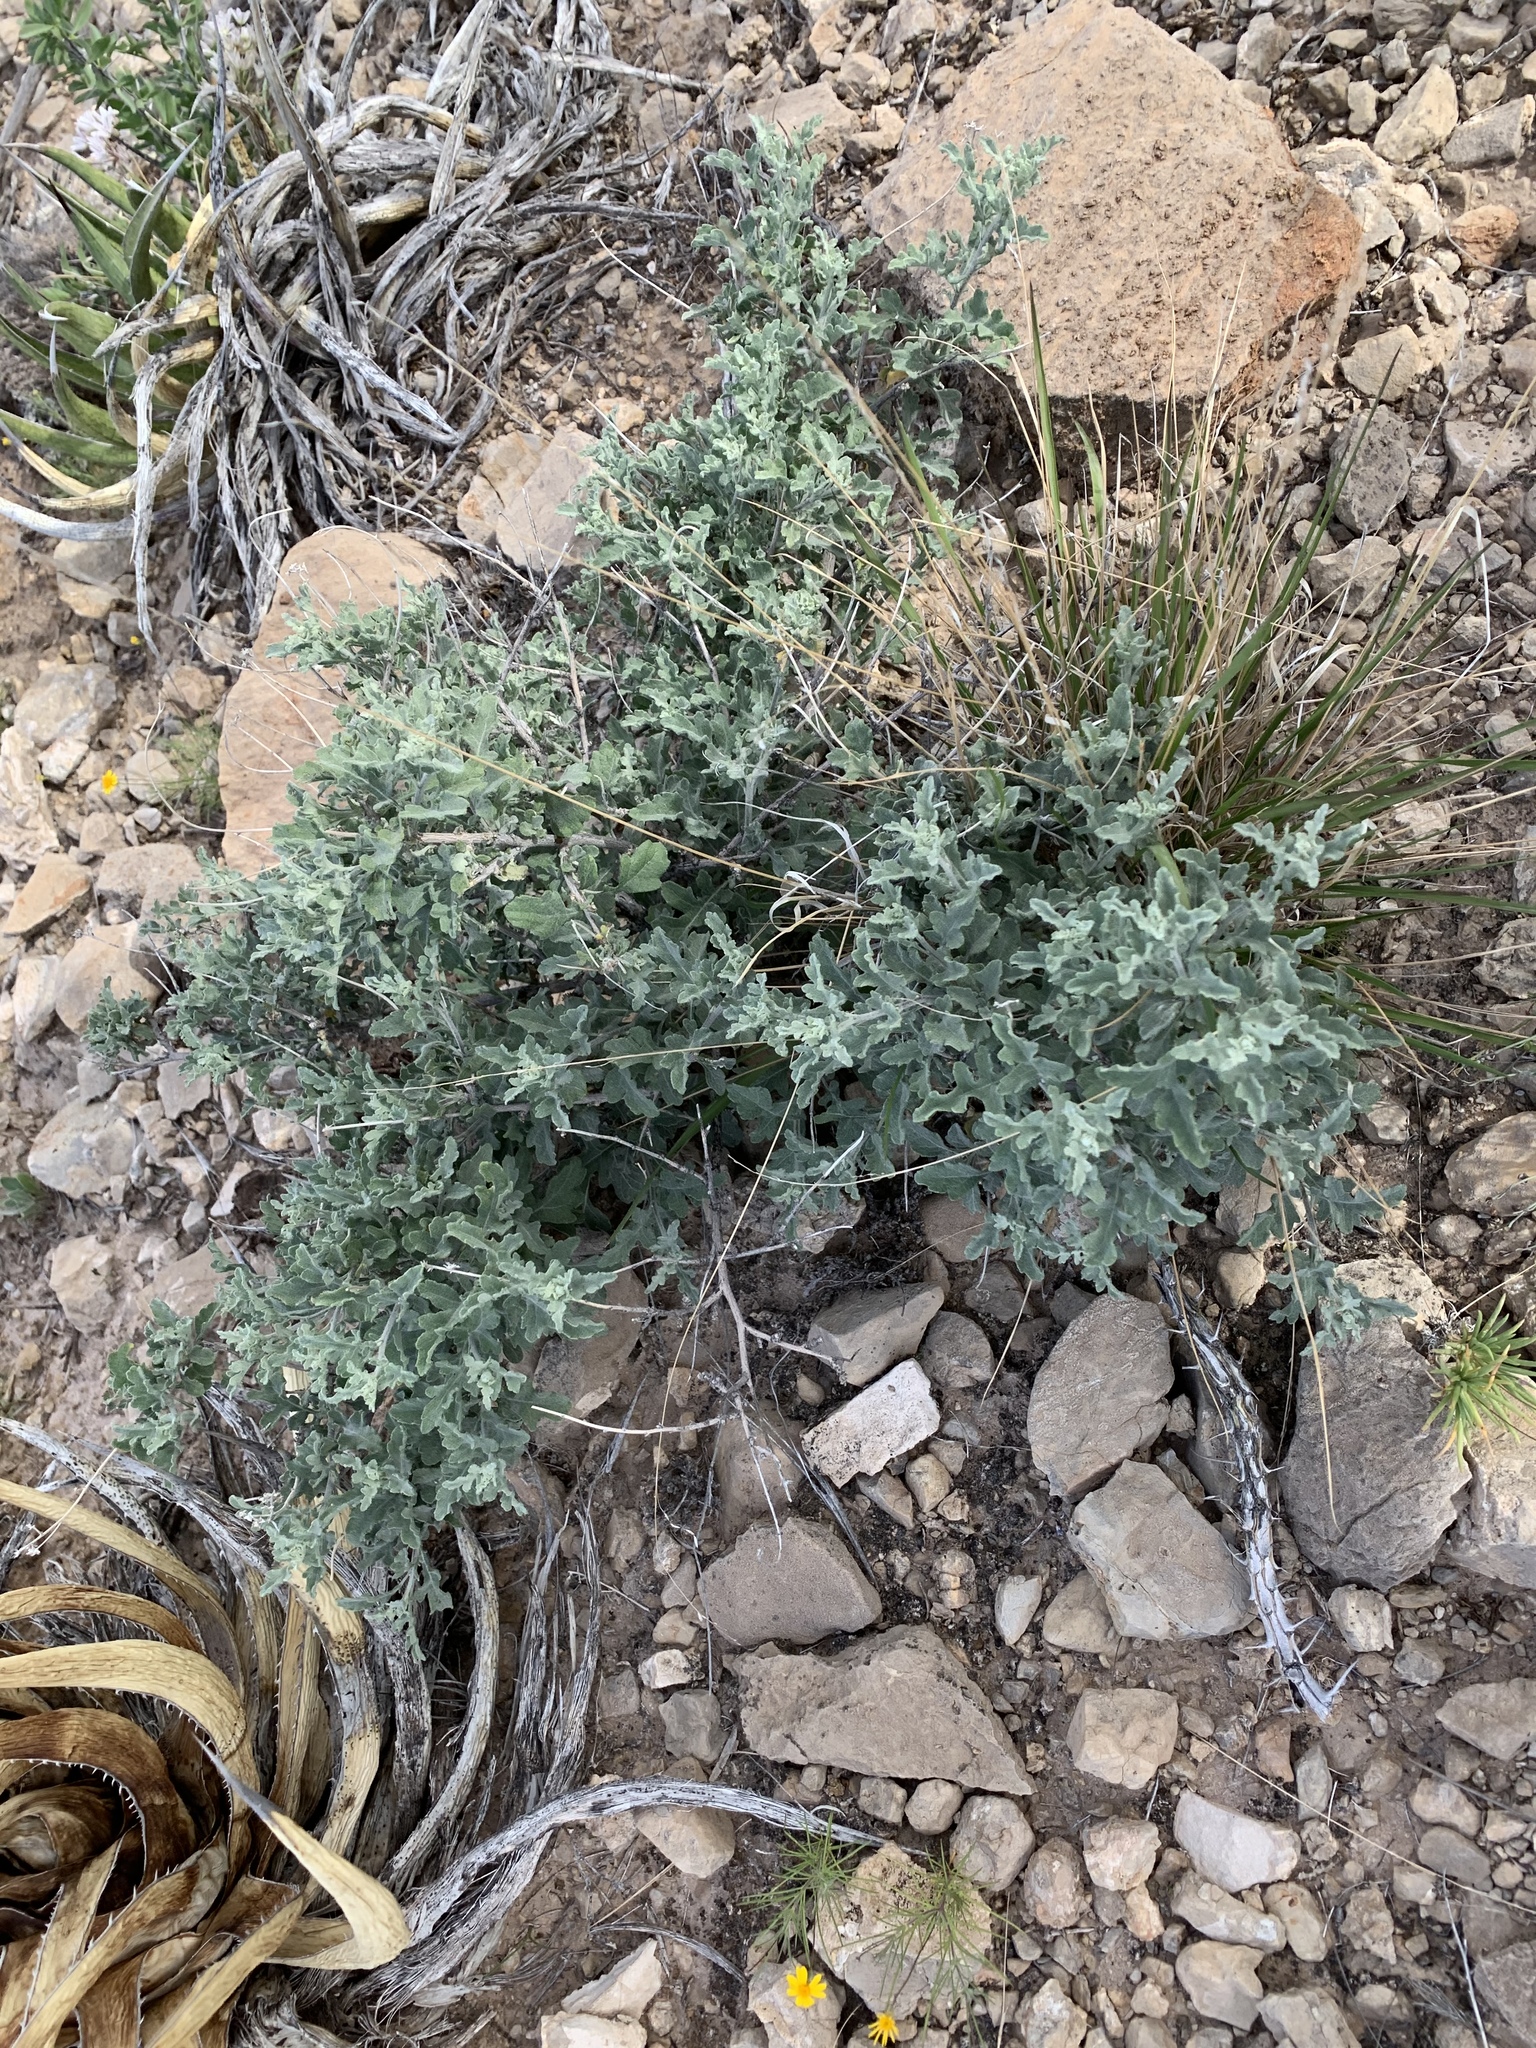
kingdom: Plantae
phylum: Tracheophyta
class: Magnoliopsida
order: Asterales
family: Asteraceae
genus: Parthenium
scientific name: Parthenium incanum
